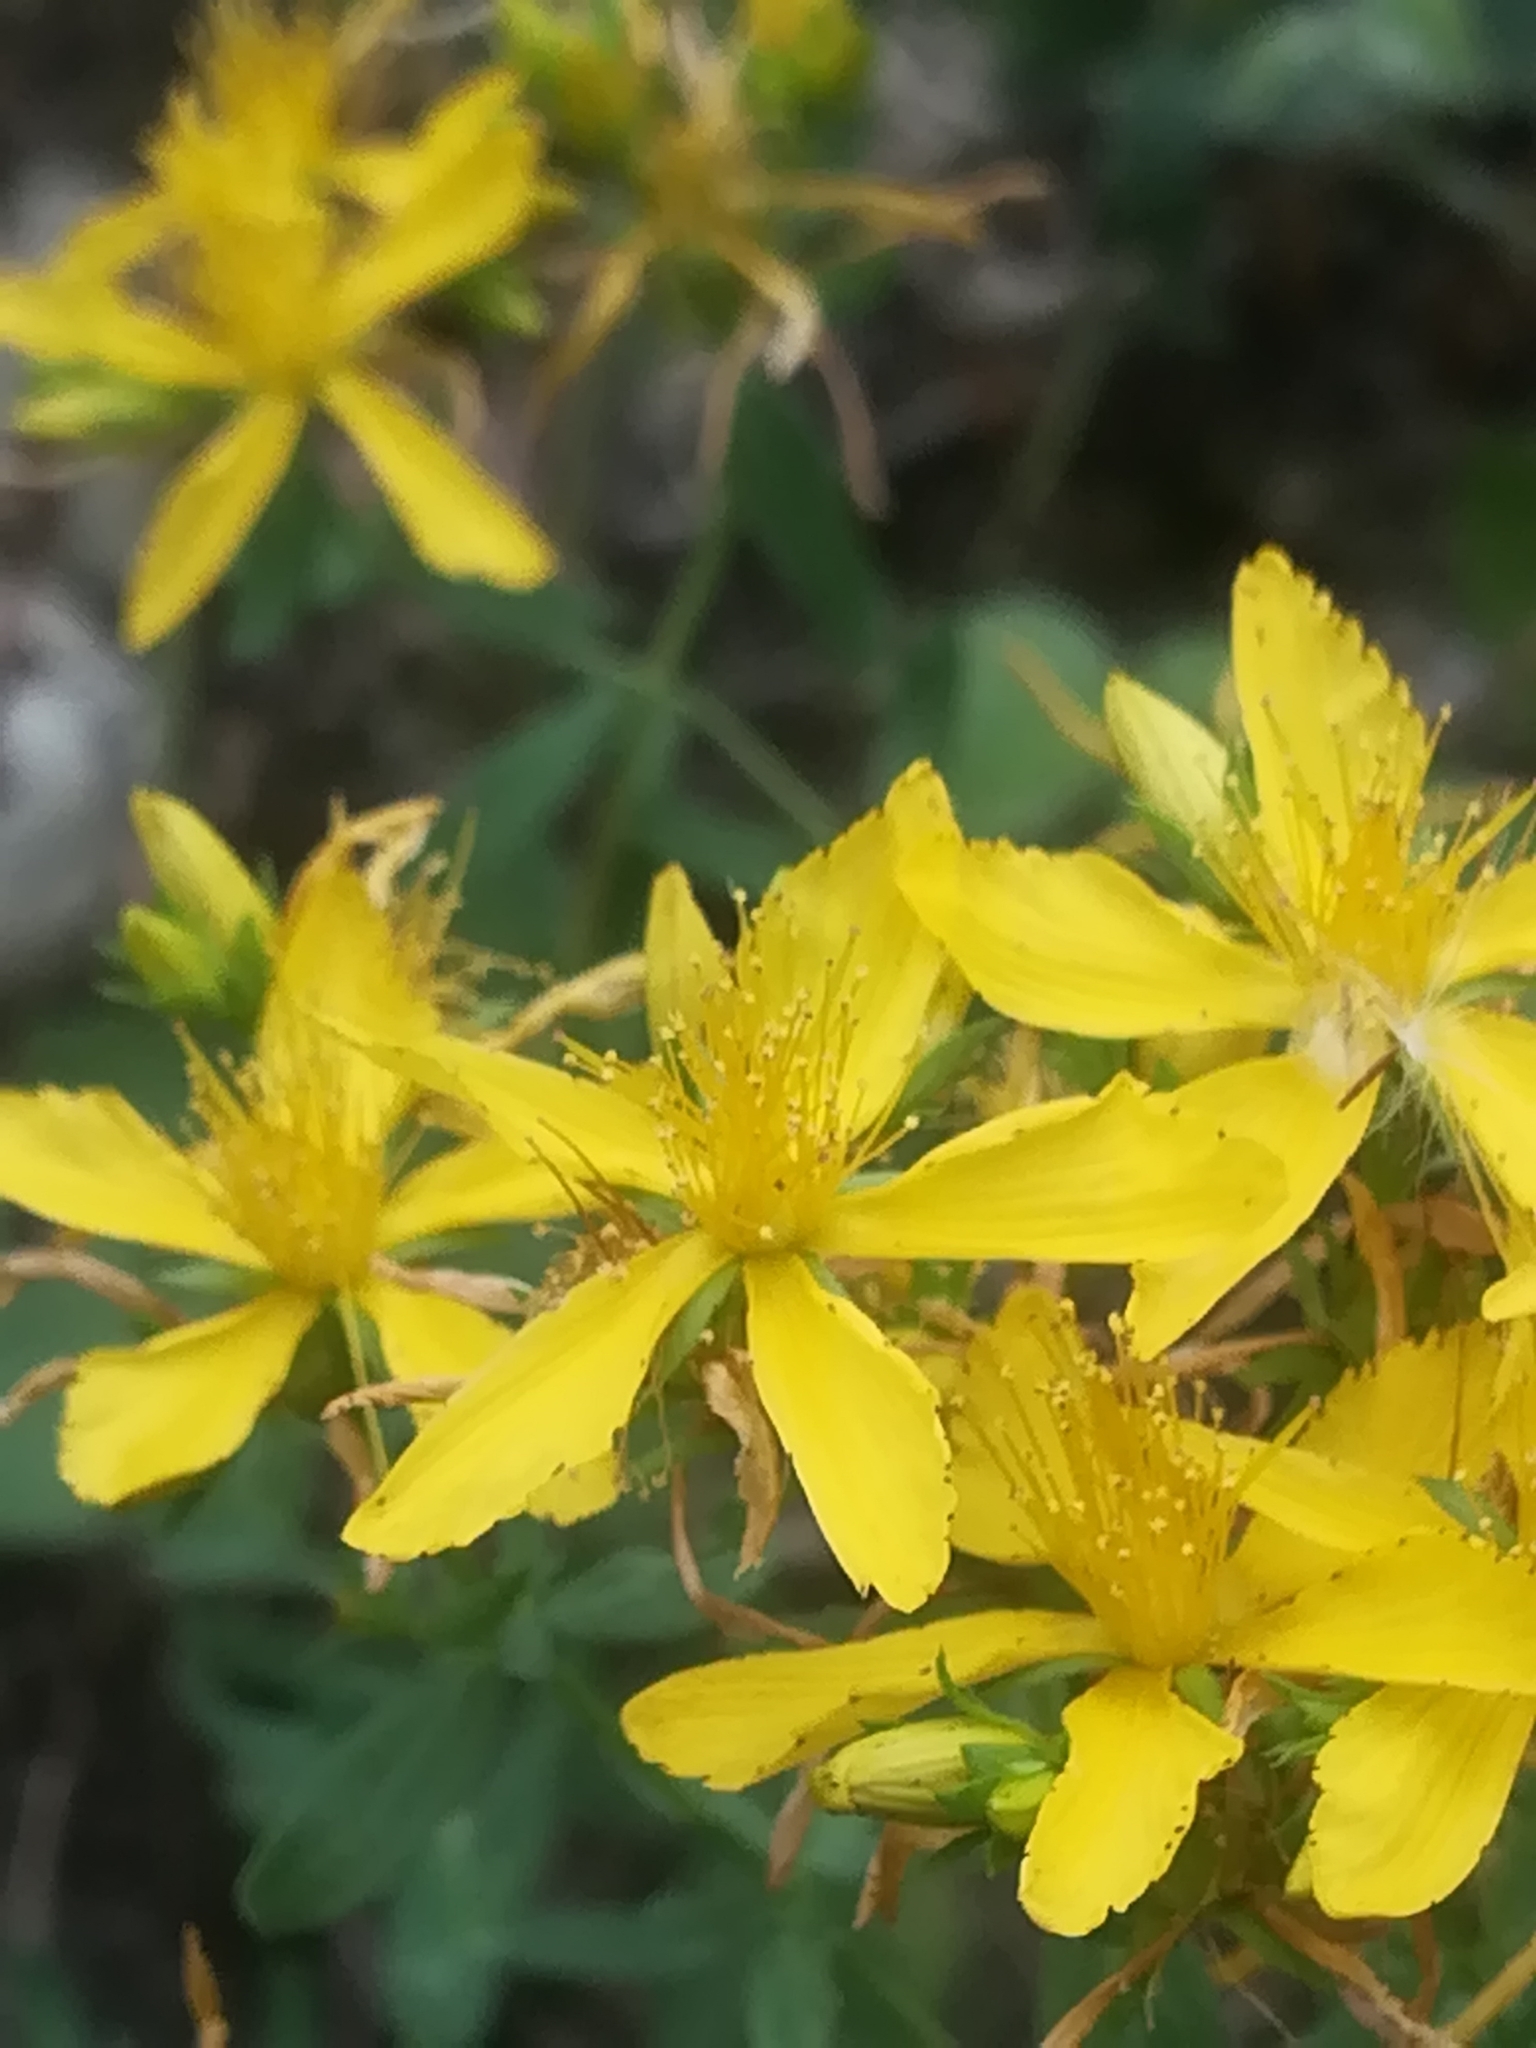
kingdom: Plantae
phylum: Tracheophyta
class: Magnoliopsida
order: Malpighiales
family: Hypericaceae
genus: Hypericum
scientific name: Hypericum perforatum
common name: Common st. johnswort
